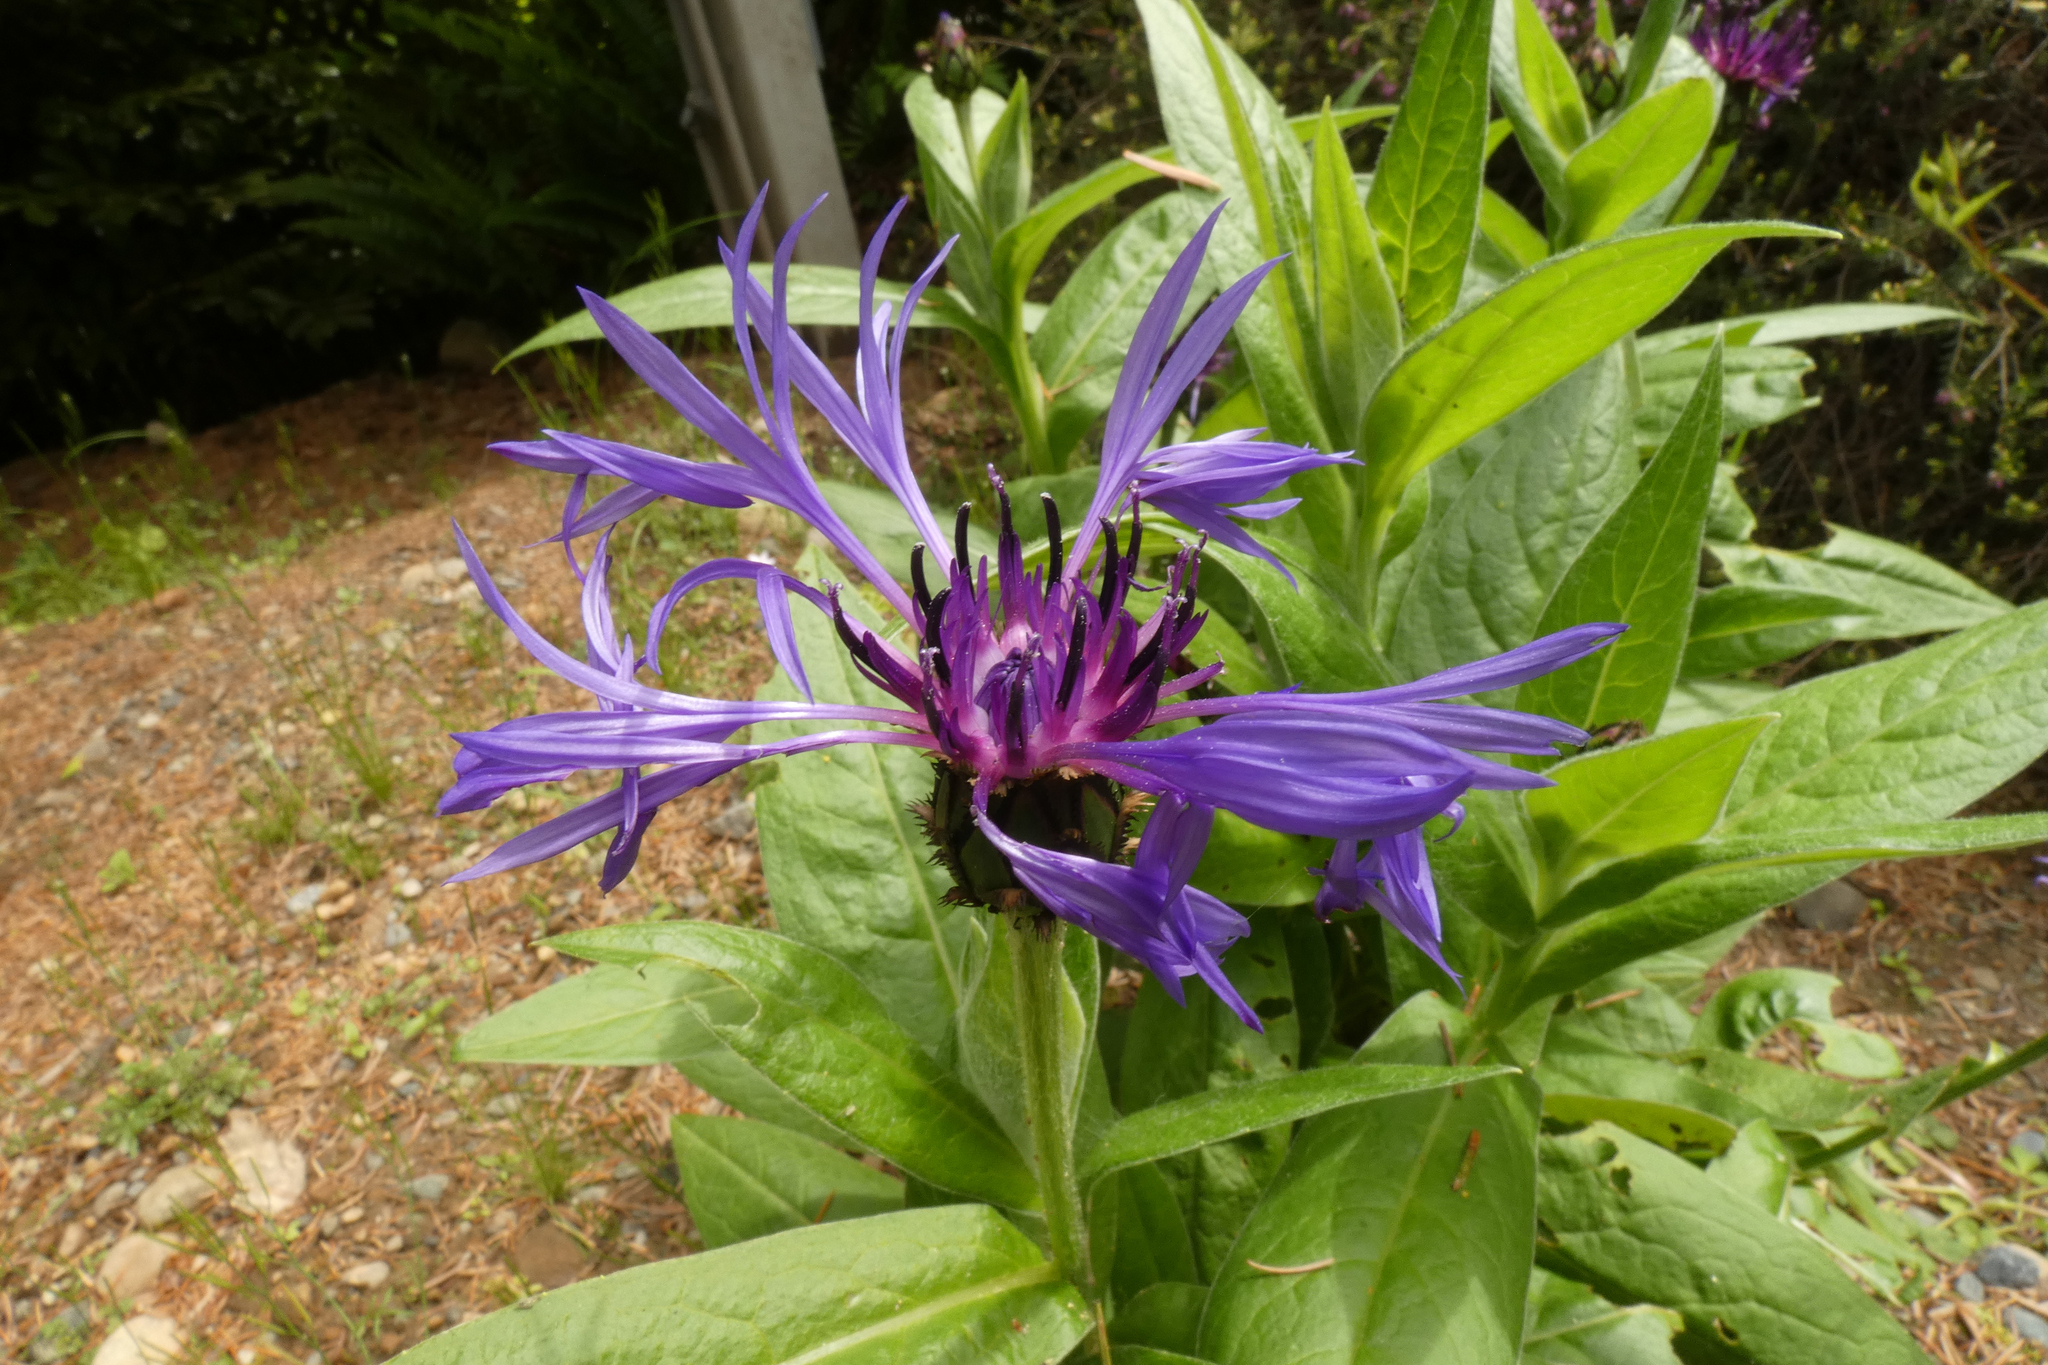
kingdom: Plantae
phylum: Tracheophyta
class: Magnoliopsida
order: Asterales
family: Asteraceae
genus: Centaurea
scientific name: Centaurea montana
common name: Perennial cornflower
